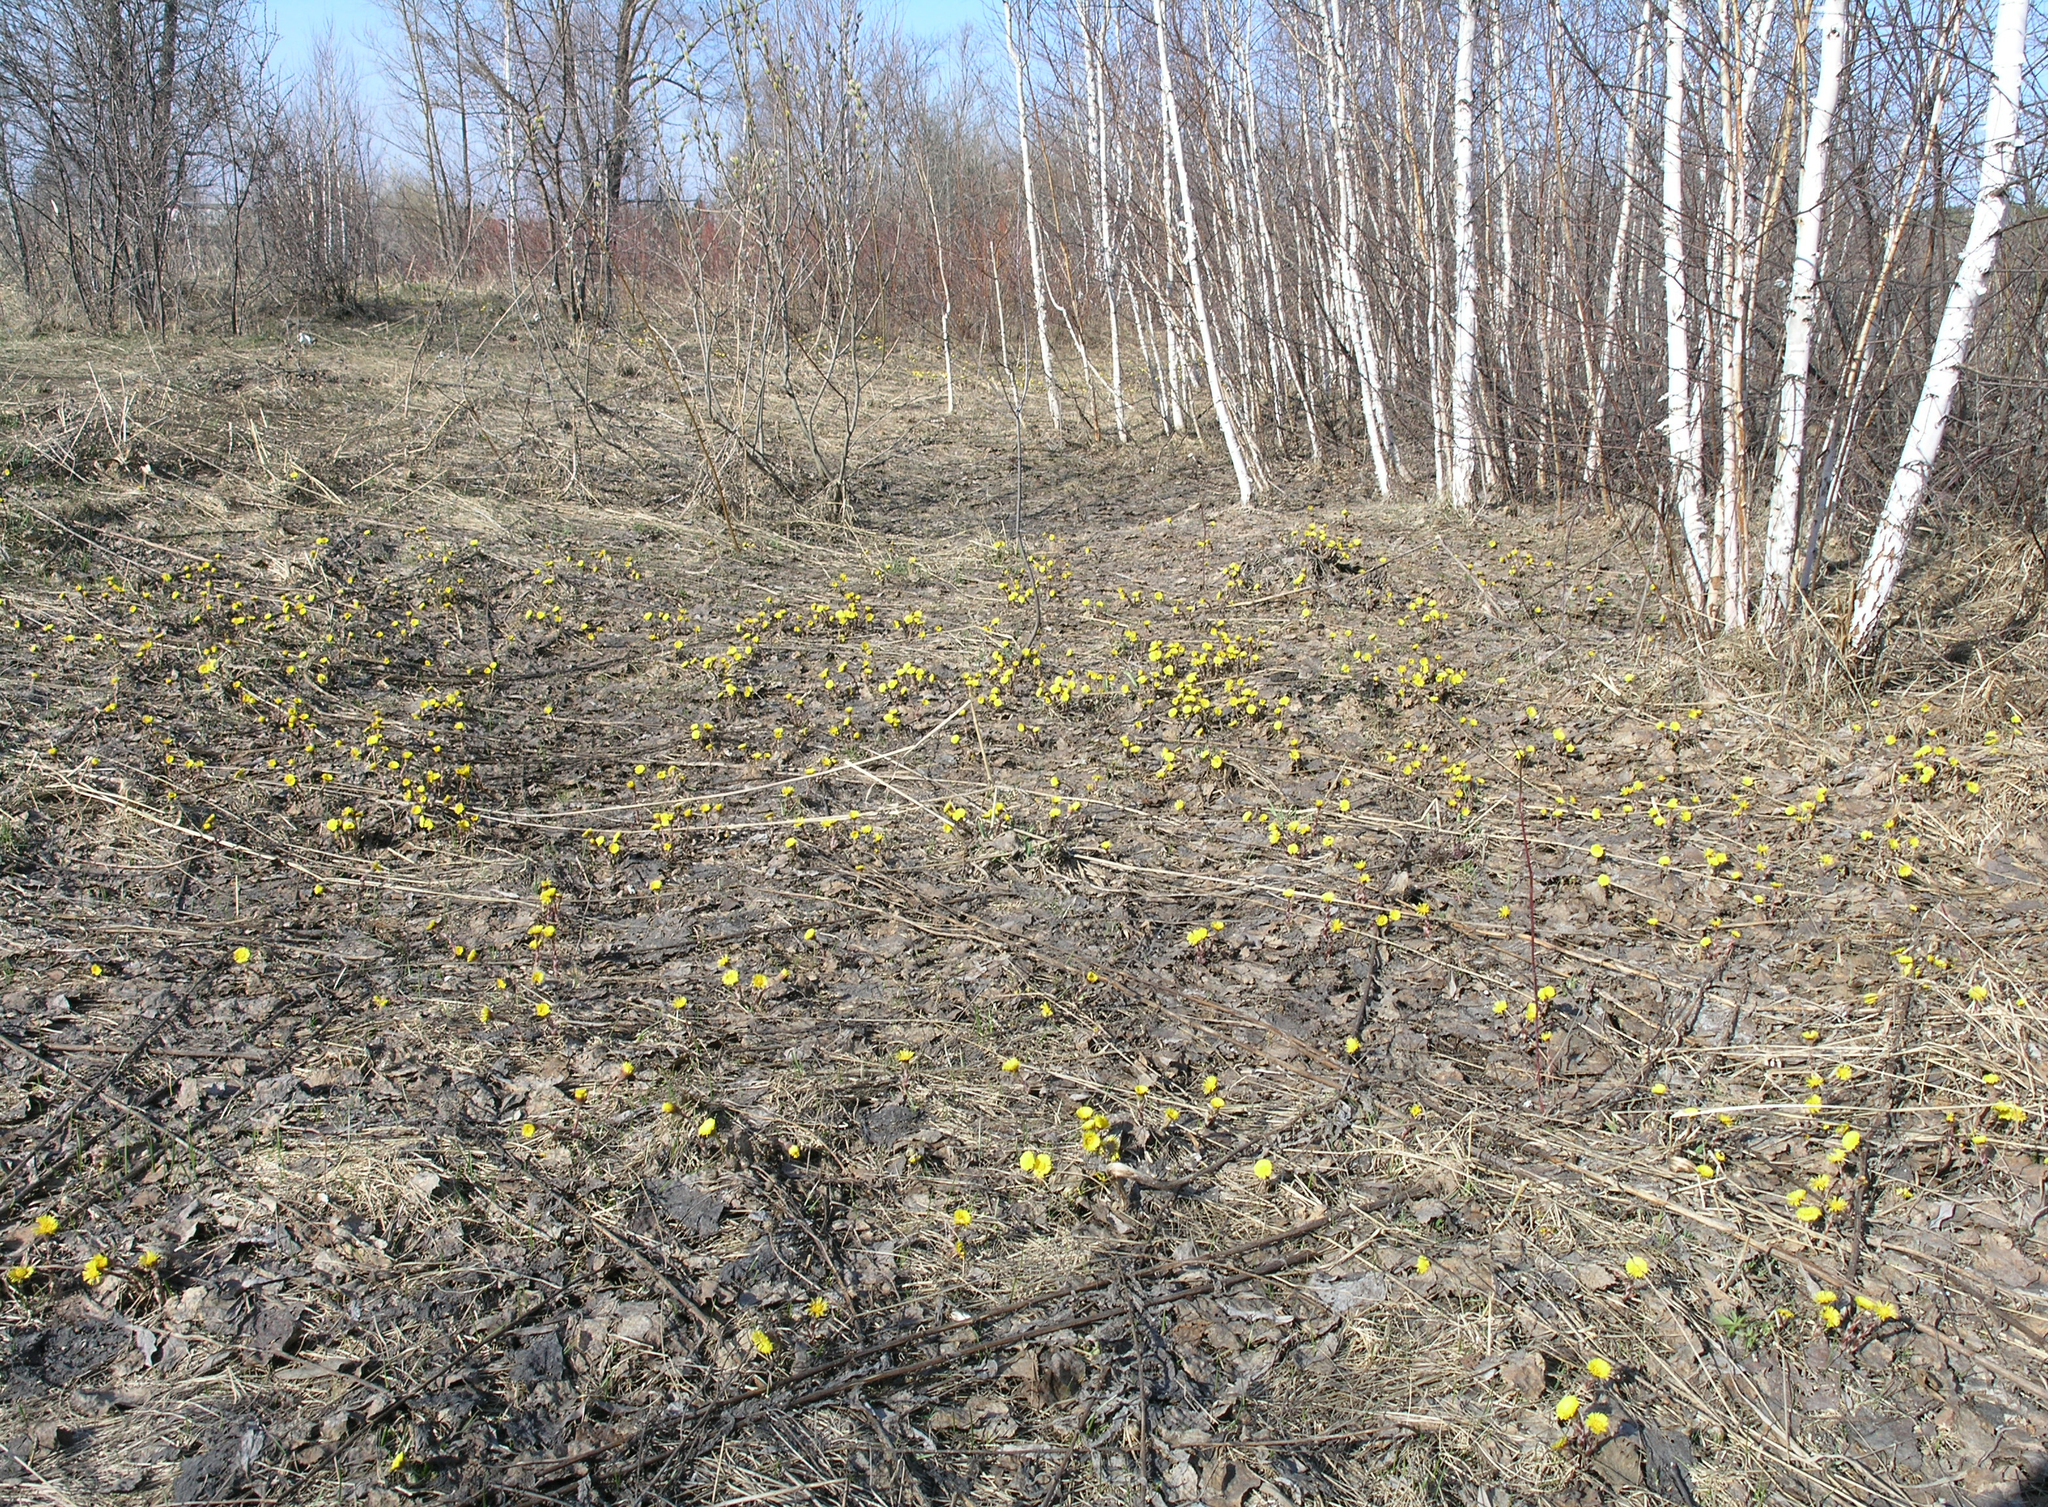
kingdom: Plantae
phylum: Tracheophyta
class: Magnoliopsida
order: Asterales
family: Asteraceae
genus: Tussilago
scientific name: Tussilago farfara
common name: Coltsfoot
